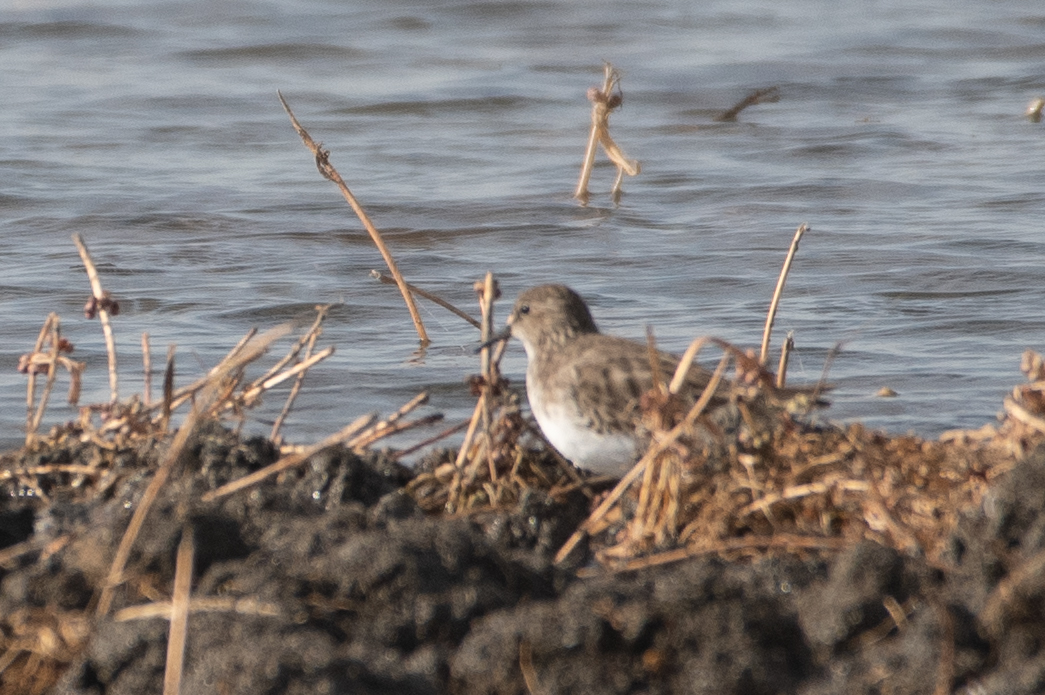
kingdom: Animalia
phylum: Chordata
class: Aves
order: Charadriiformes
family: Scolopacidae
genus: Calidris
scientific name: Calidris minutilla
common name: Least sandpiper
